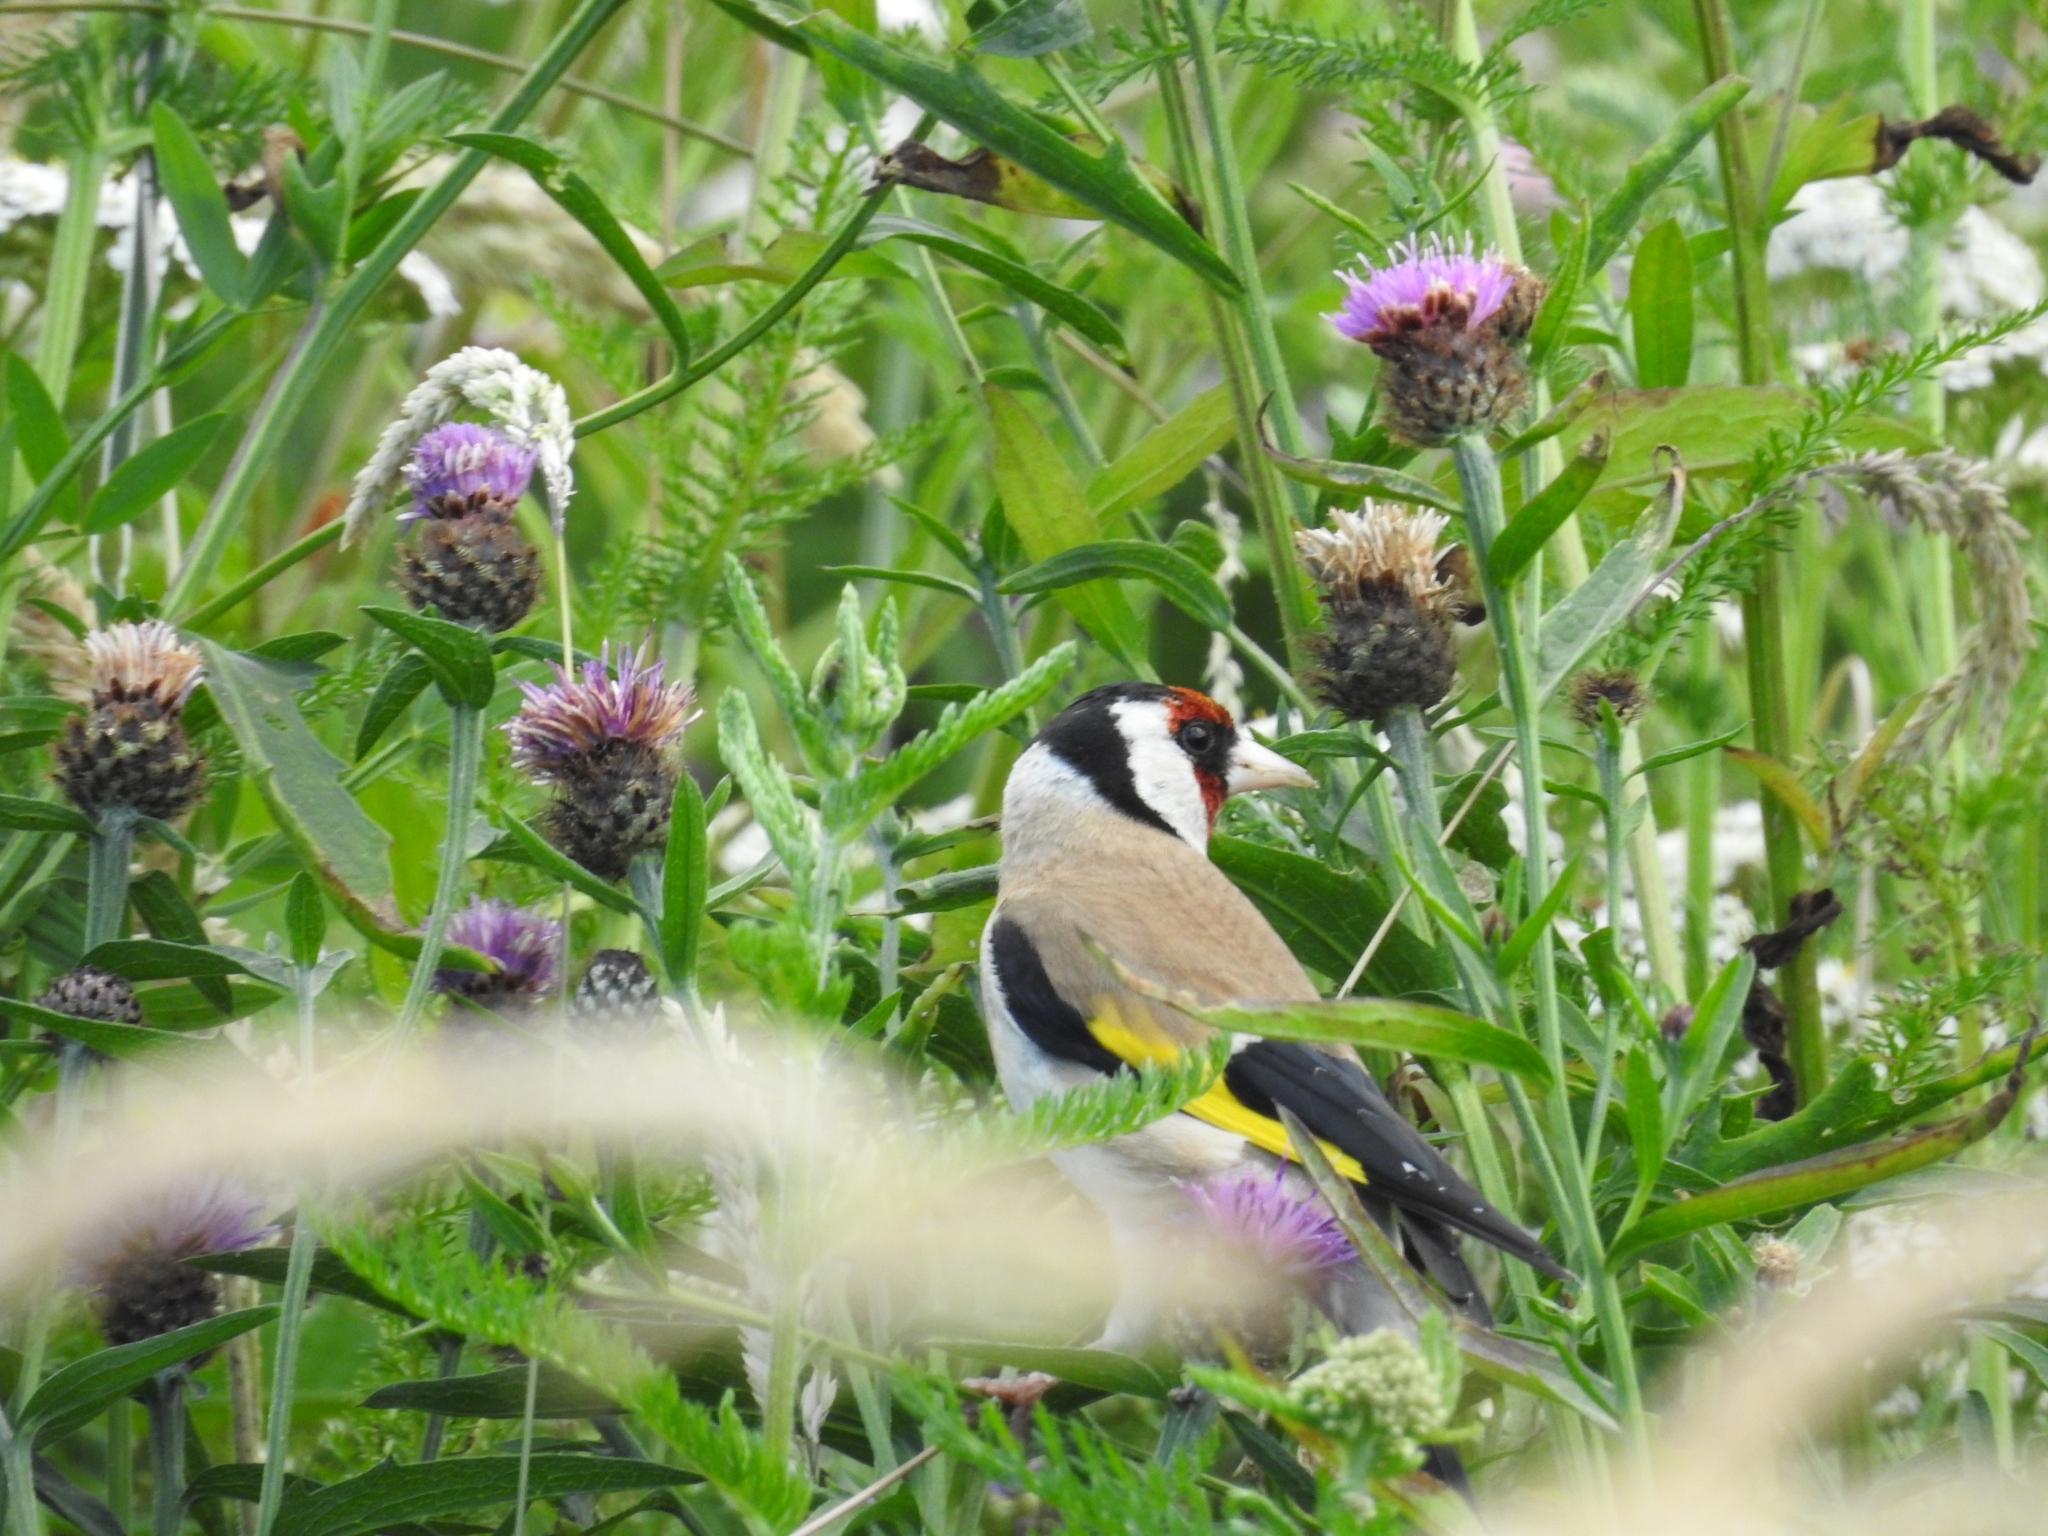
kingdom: Animalia
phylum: Chordata
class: Aves
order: Passeriformes
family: Fringillidae
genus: Carduelis
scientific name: Carduelis carduelis
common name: European goldfinch
